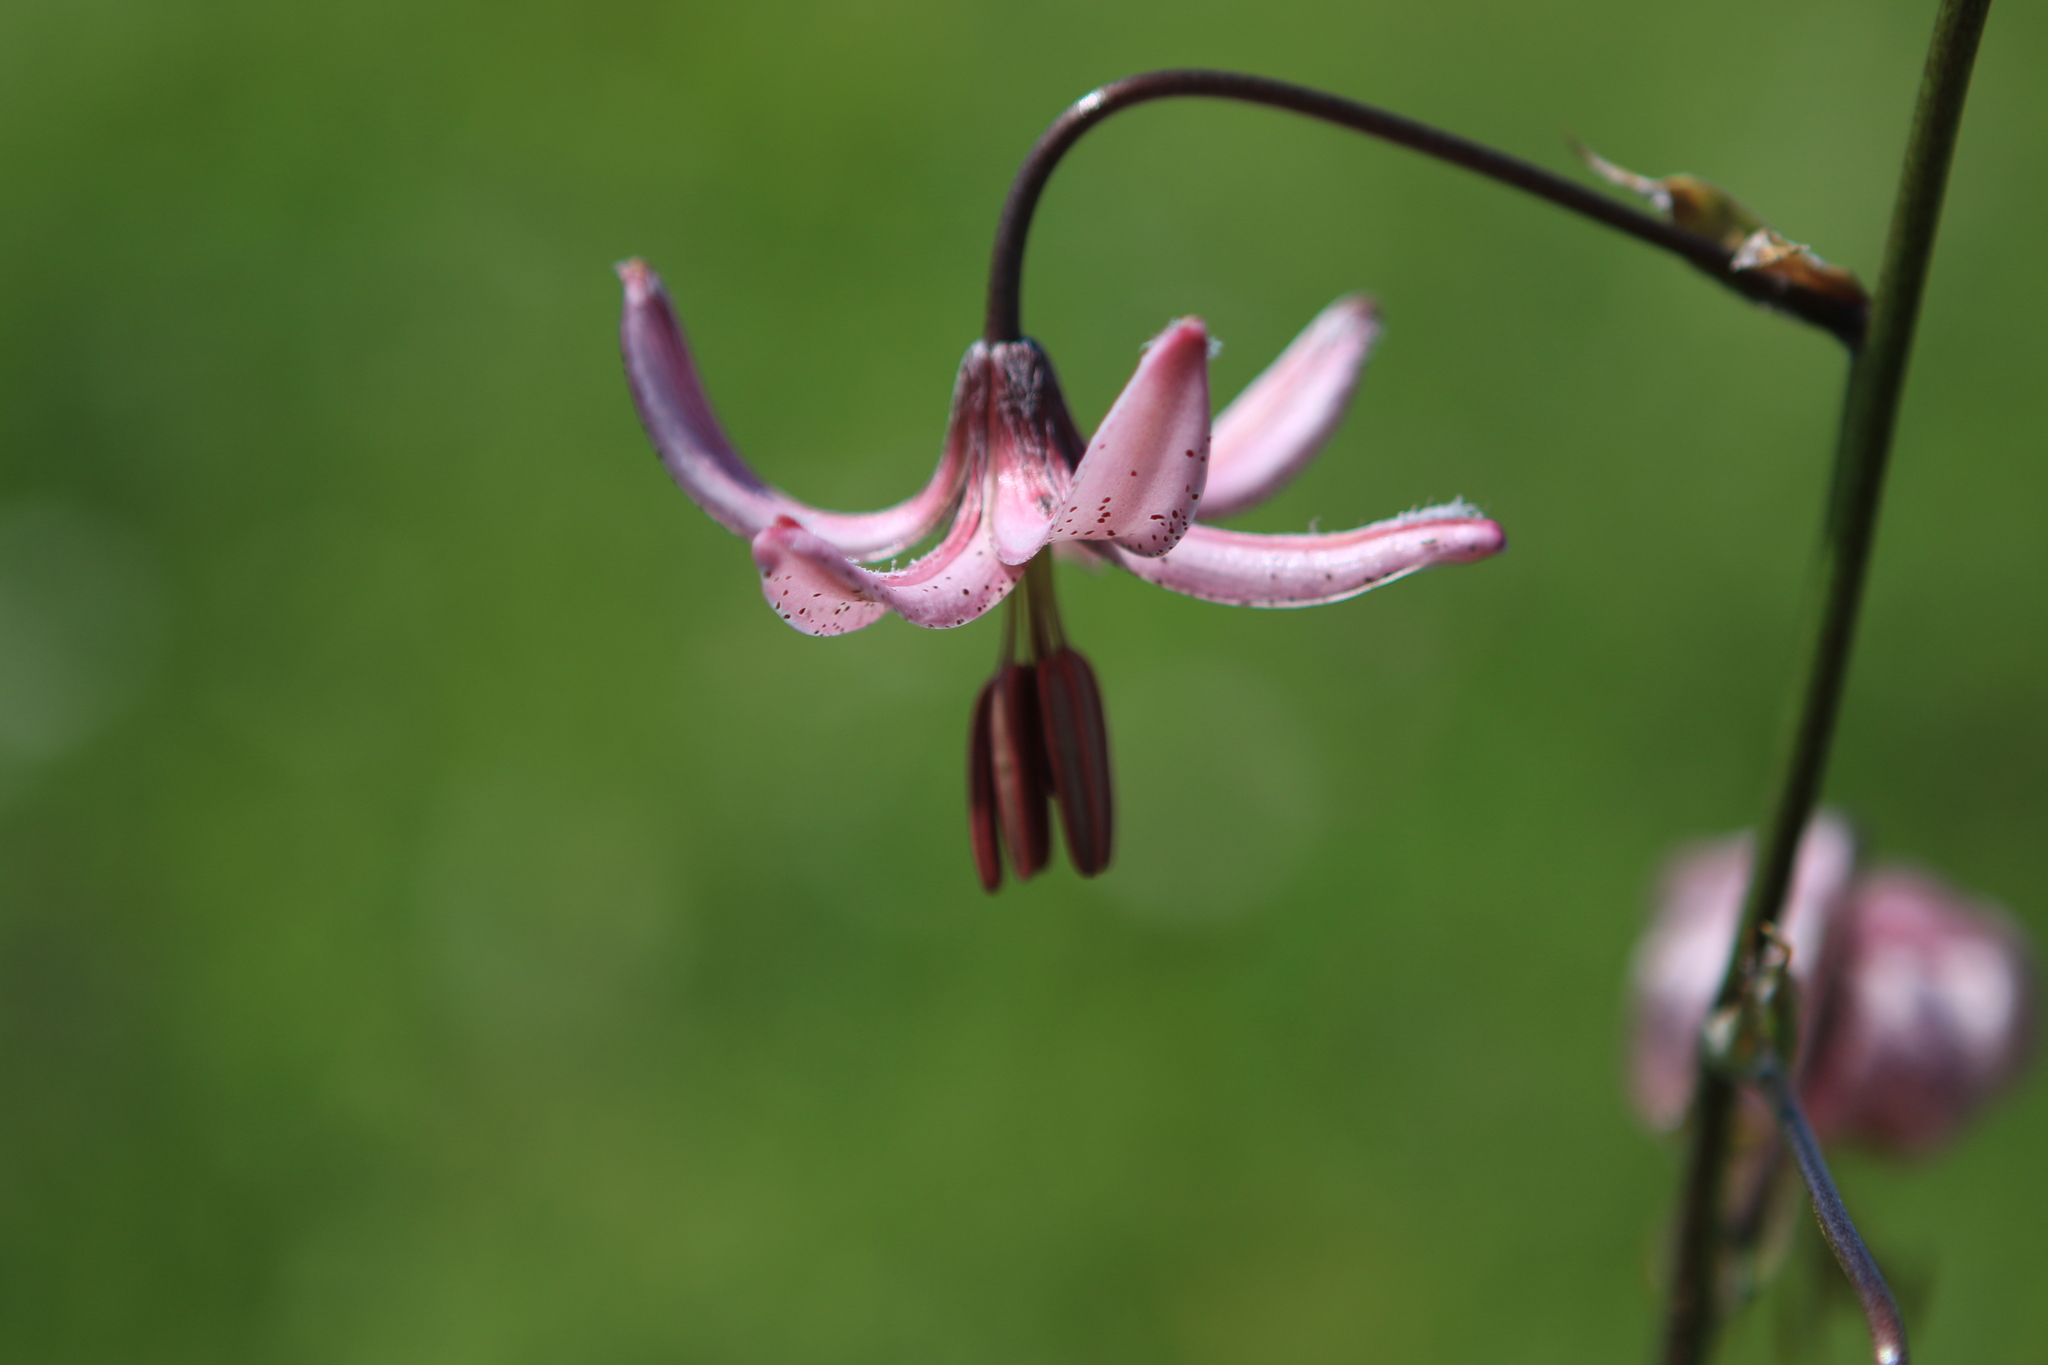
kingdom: Plantae
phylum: Tracheophyta
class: Liliopsida
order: Liliales
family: Liliaceae
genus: Lilium
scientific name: Lilium martagon
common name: Martagon lily
